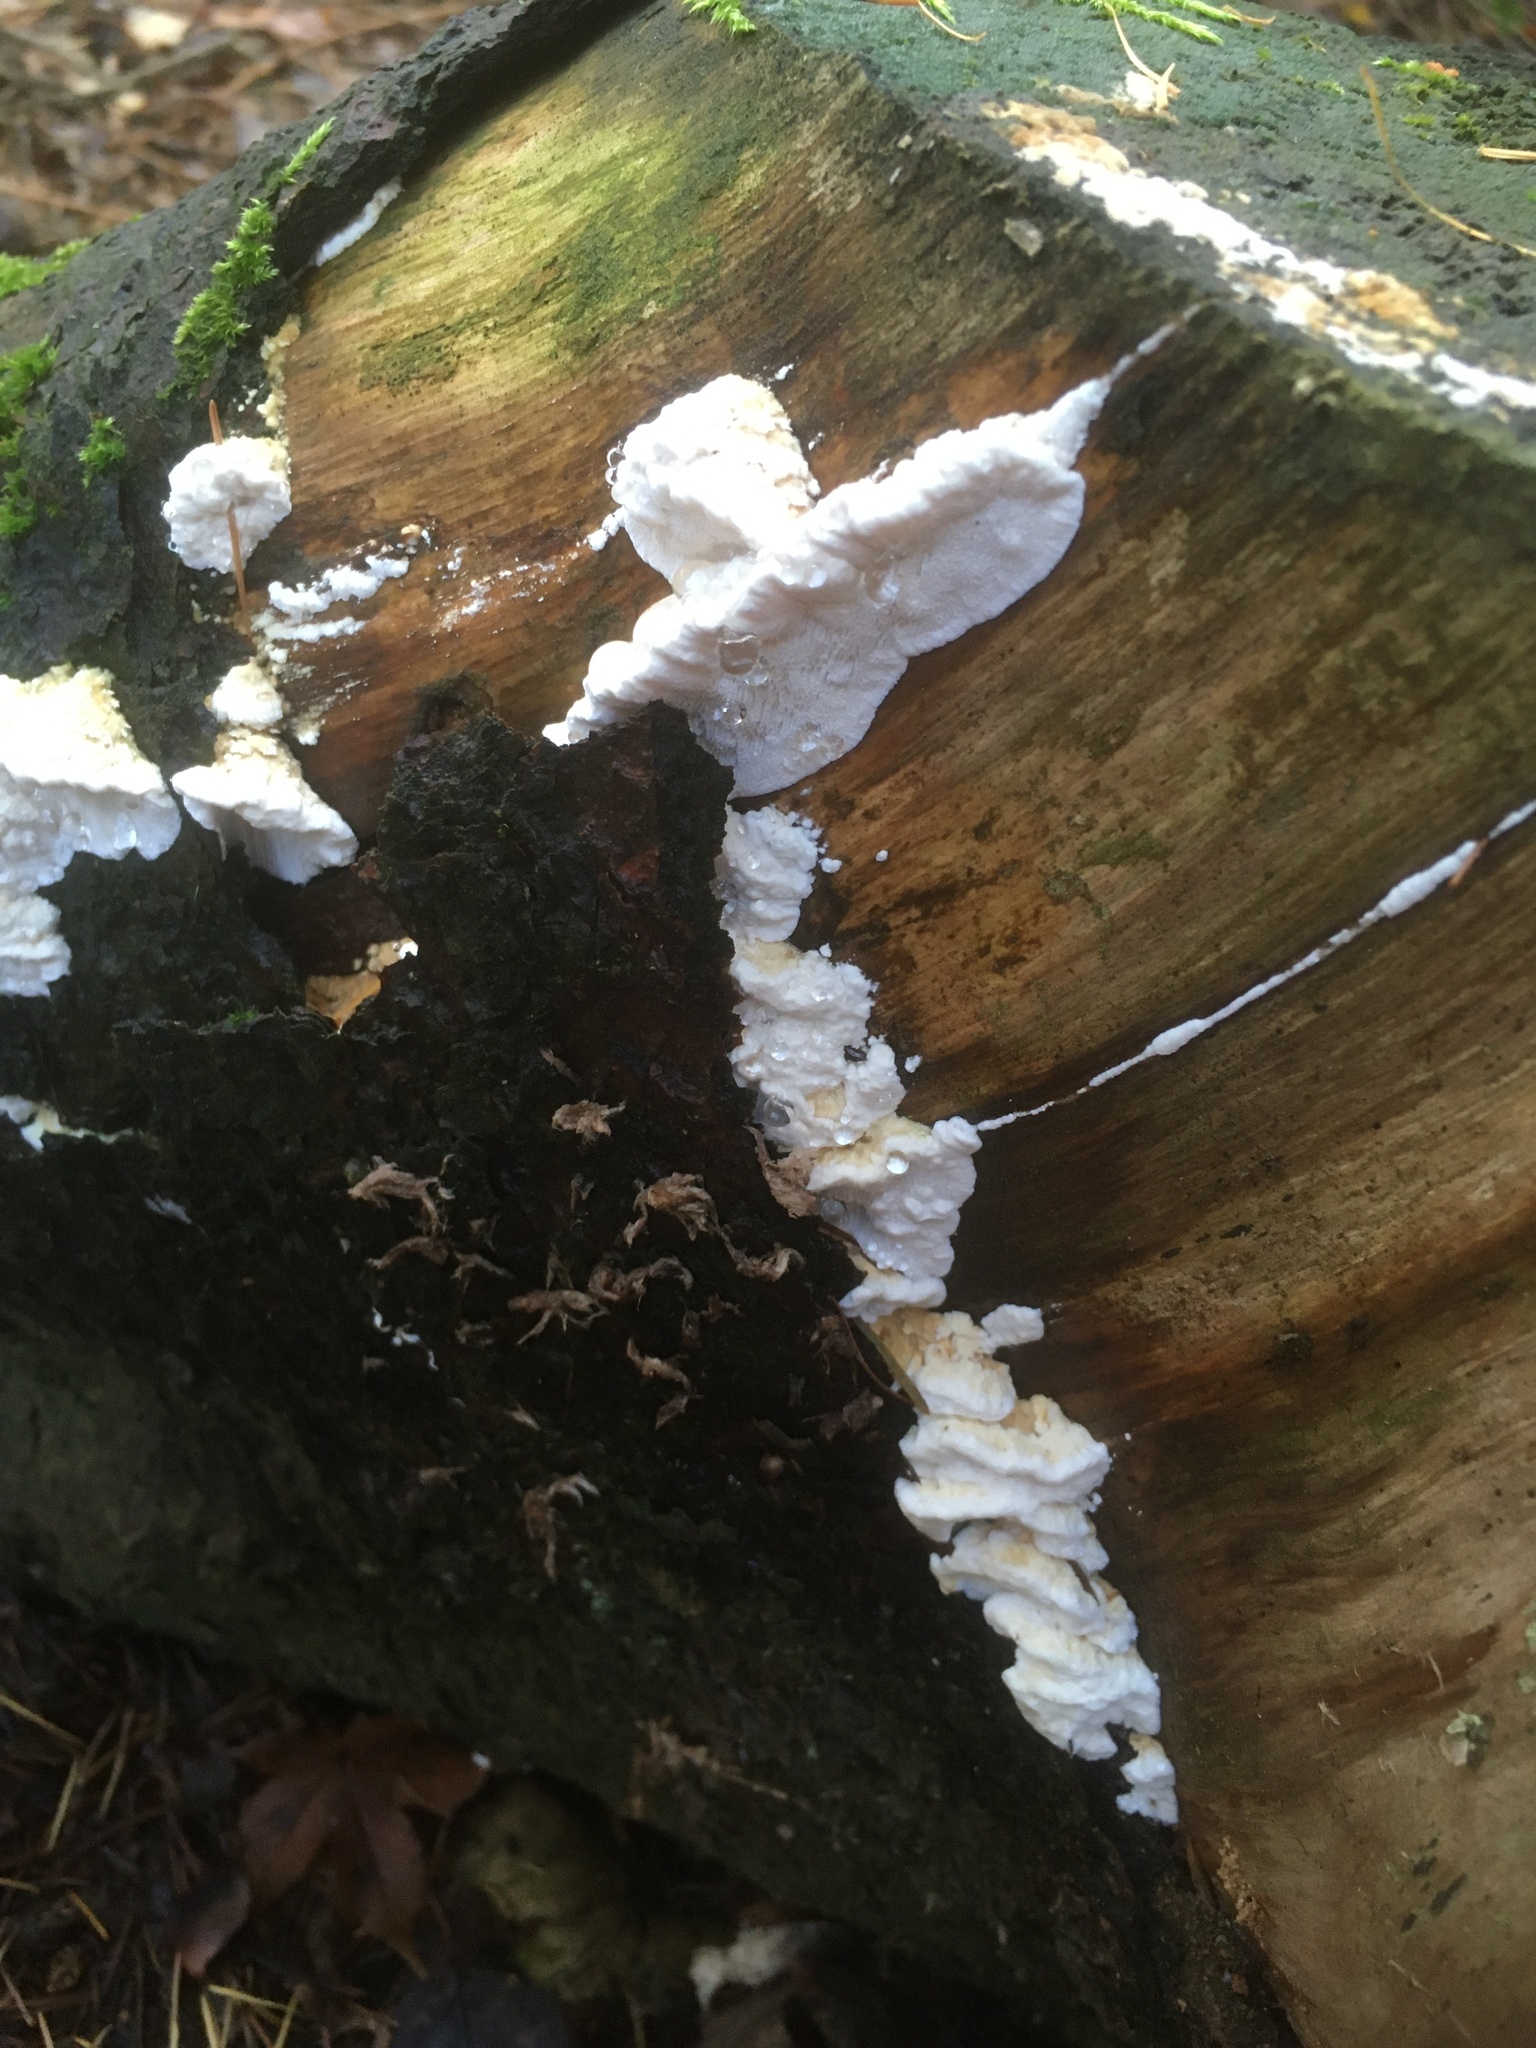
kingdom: Fungi
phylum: Basidiomycota
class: Agaricomycetes
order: Polyporales
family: Incrustoporiaceae
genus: Tyromyces
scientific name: Tyromyces chioneus
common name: White cheese polypore
